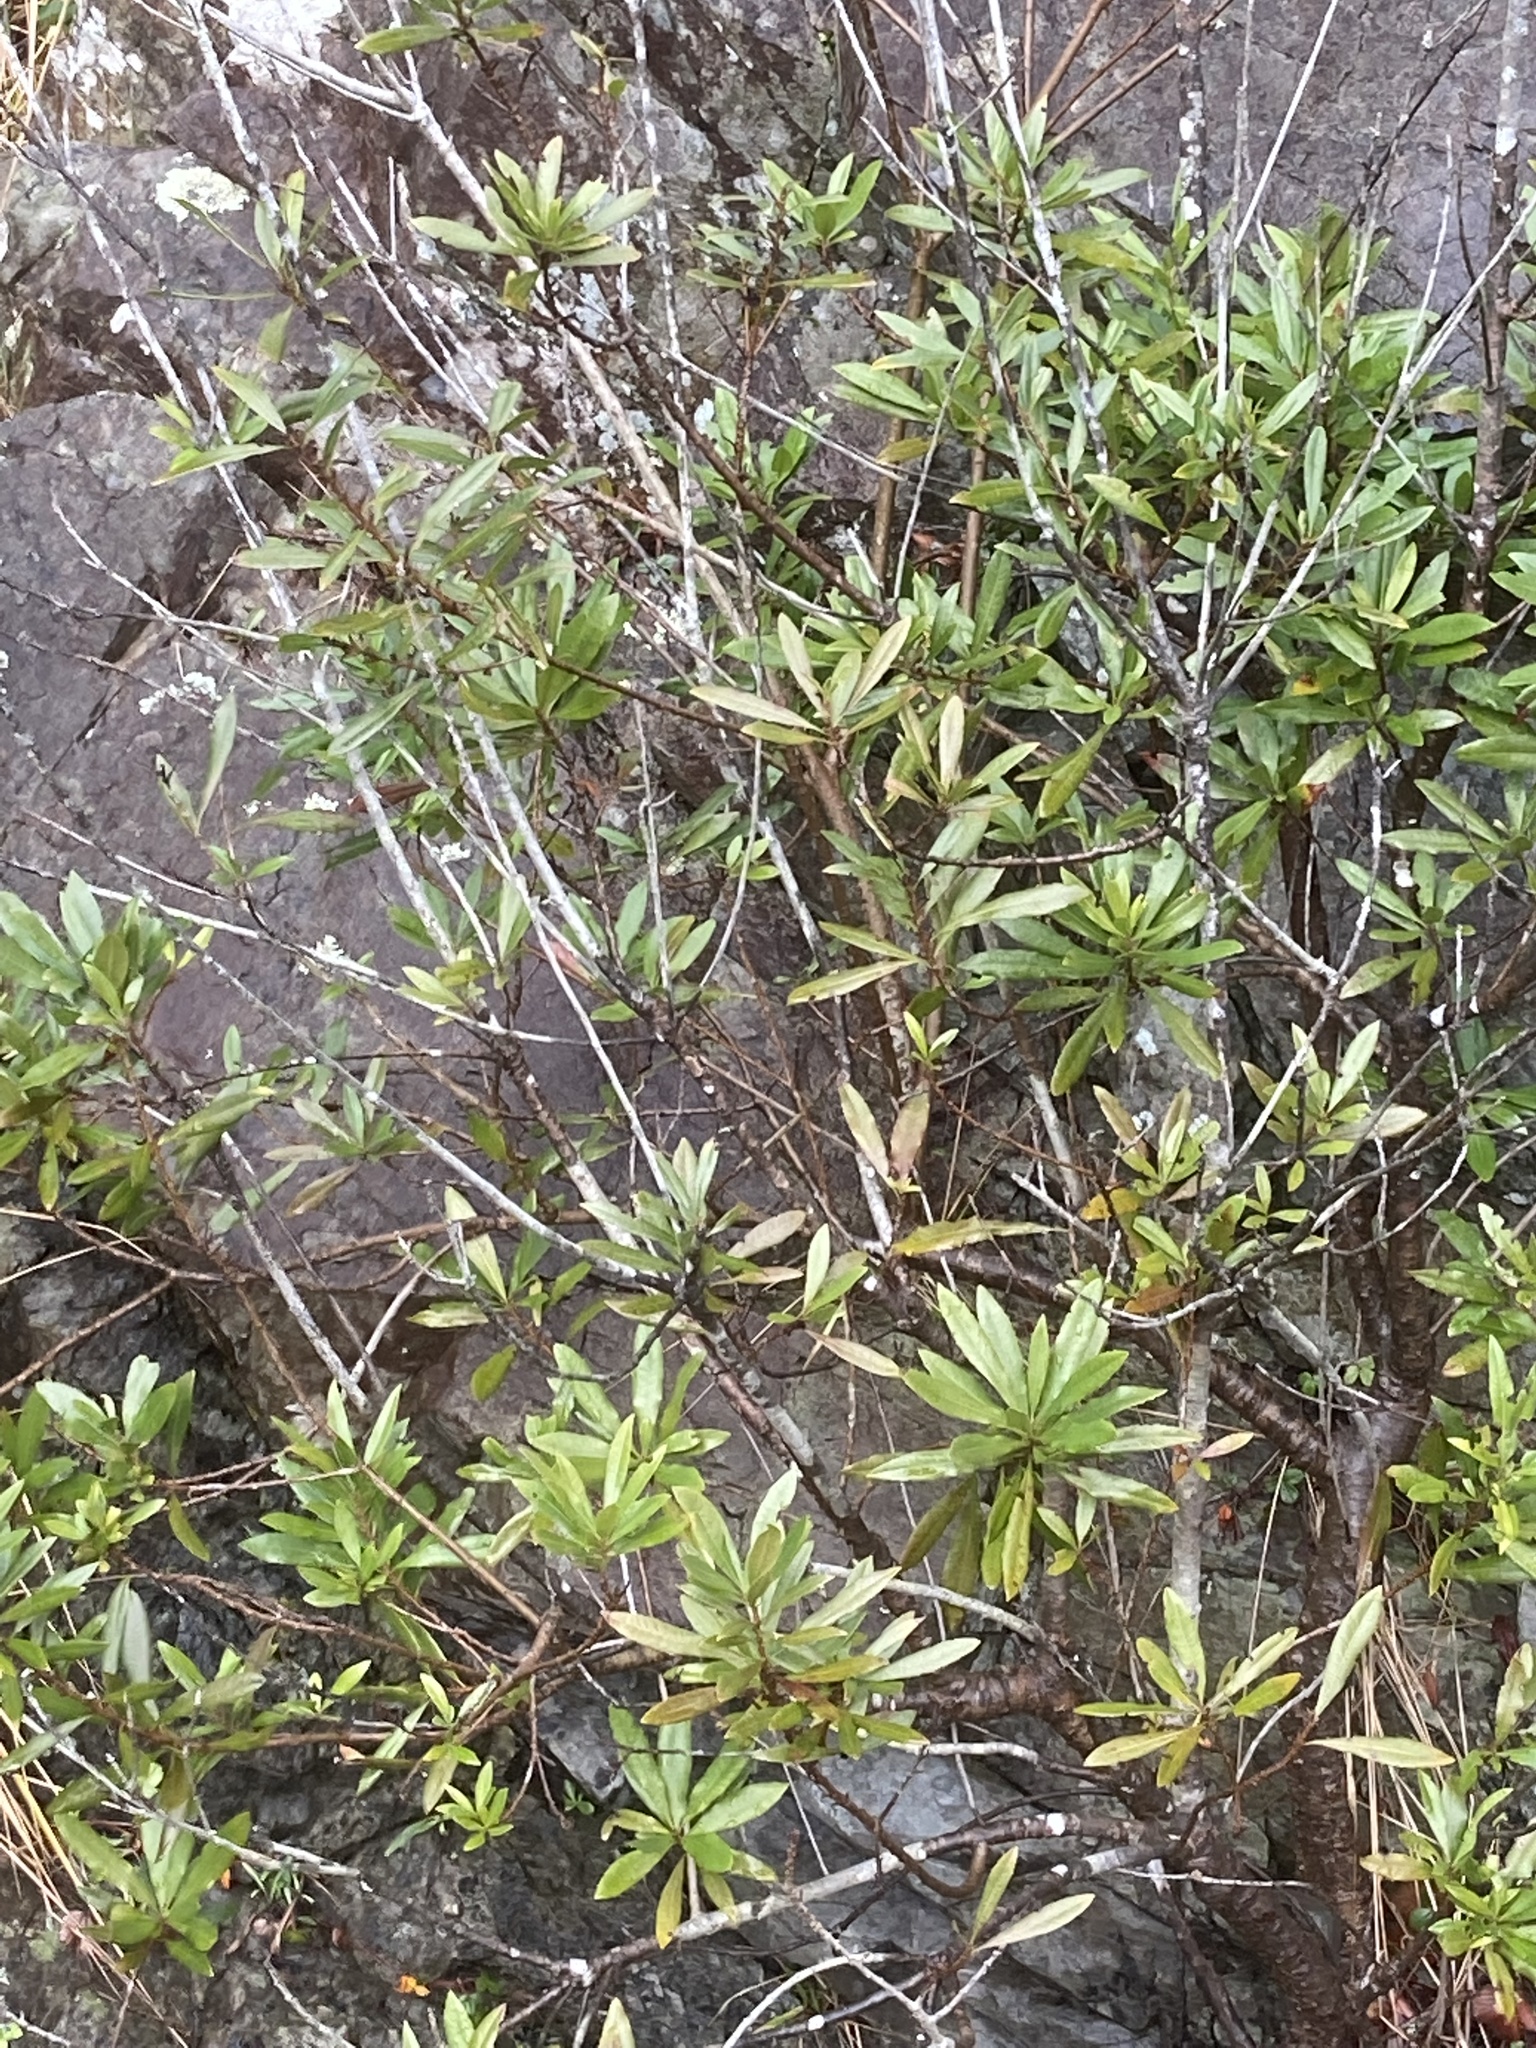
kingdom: Plantae
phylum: Tracheophyta
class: Magnoliopsida
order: Fagales
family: Myricaceae
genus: Morella
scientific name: Morella californica
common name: California wax-myrtle
